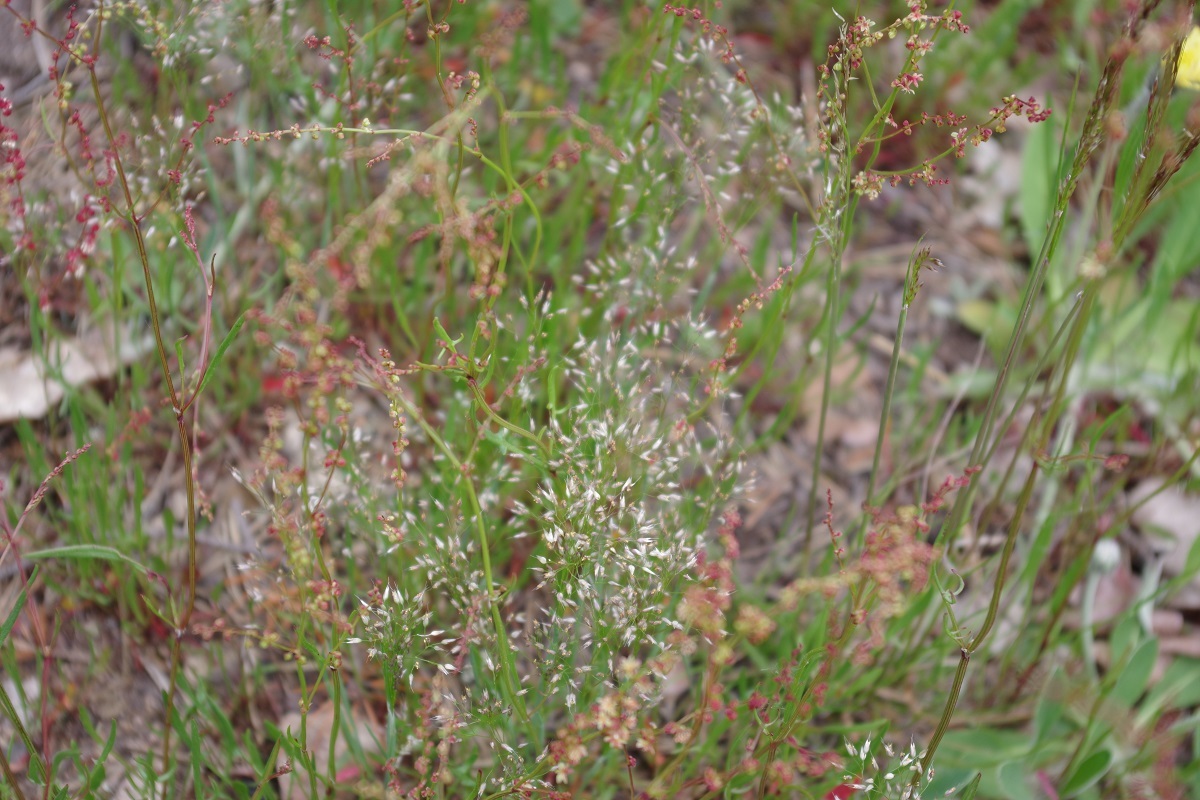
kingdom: Plantae
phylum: Tracheophyta
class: Liliopsida
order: Poales
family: Poaceae
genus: Aira
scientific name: Aira caryophyllea
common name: Silver hairgrass
